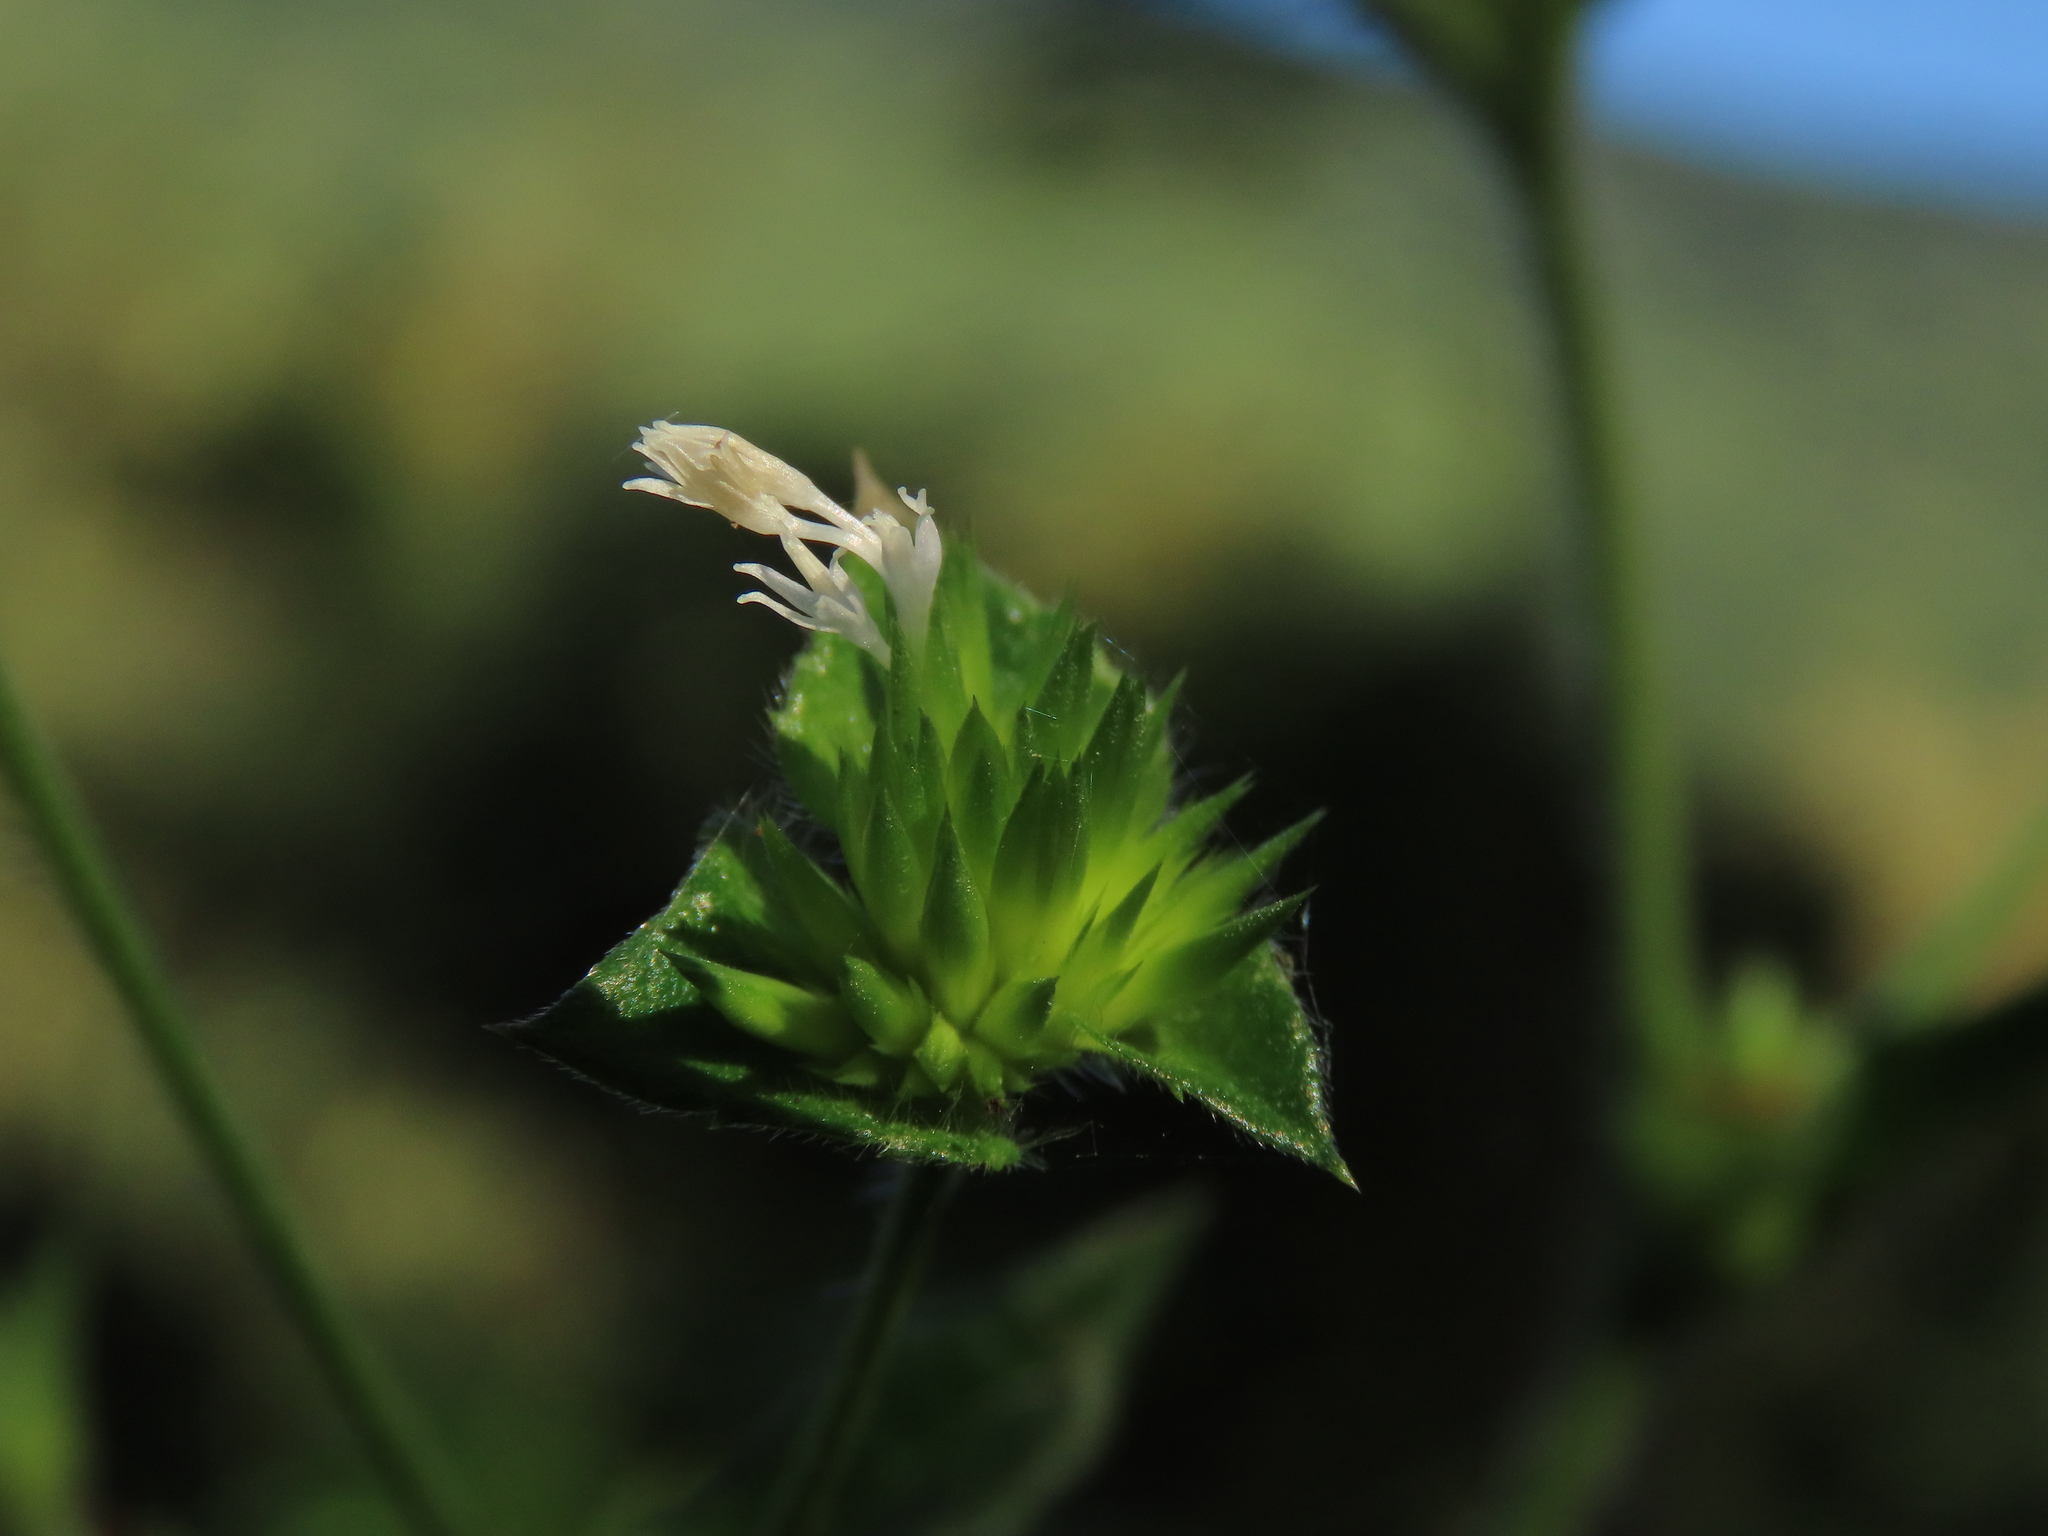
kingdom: Plantae
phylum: Tracheophyta
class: Magnoliopsida
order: Asterales
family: Asteraceae
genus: Elephantopus
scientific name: Elephantopus mollis
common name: Soft elephantsfoot
